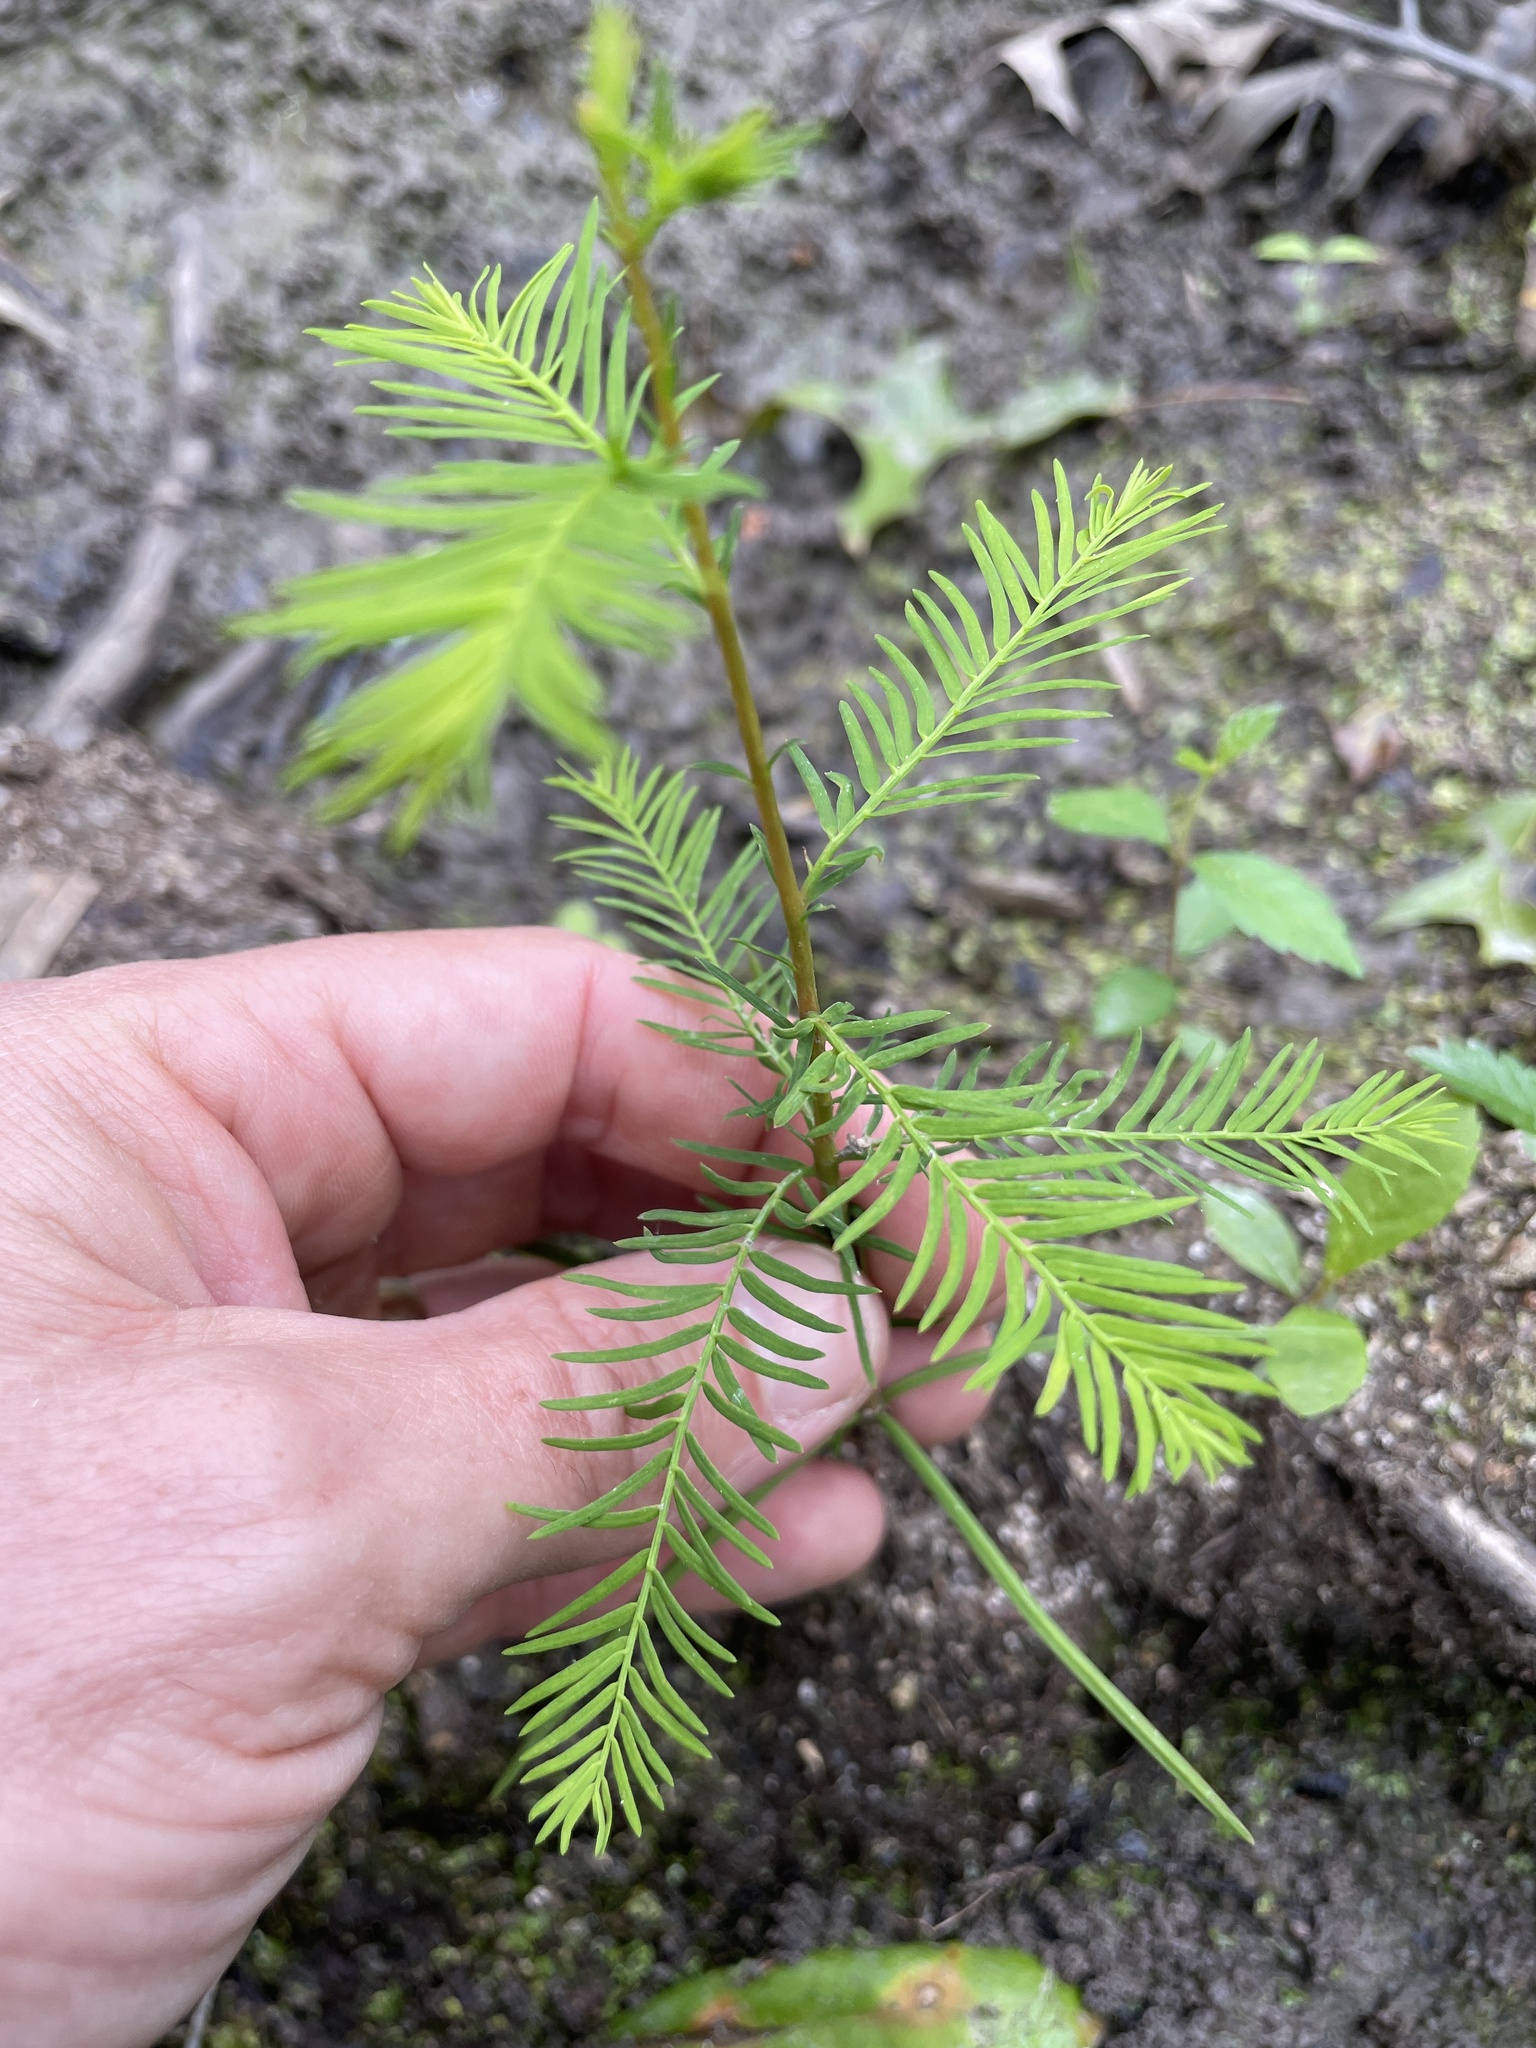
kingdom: Plantae
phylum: Tracheophyta
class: Pinopsida
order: Pinales
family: Cupressaceae
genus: Taxodium
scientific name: Taxodium distichum
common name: Bald cypress
